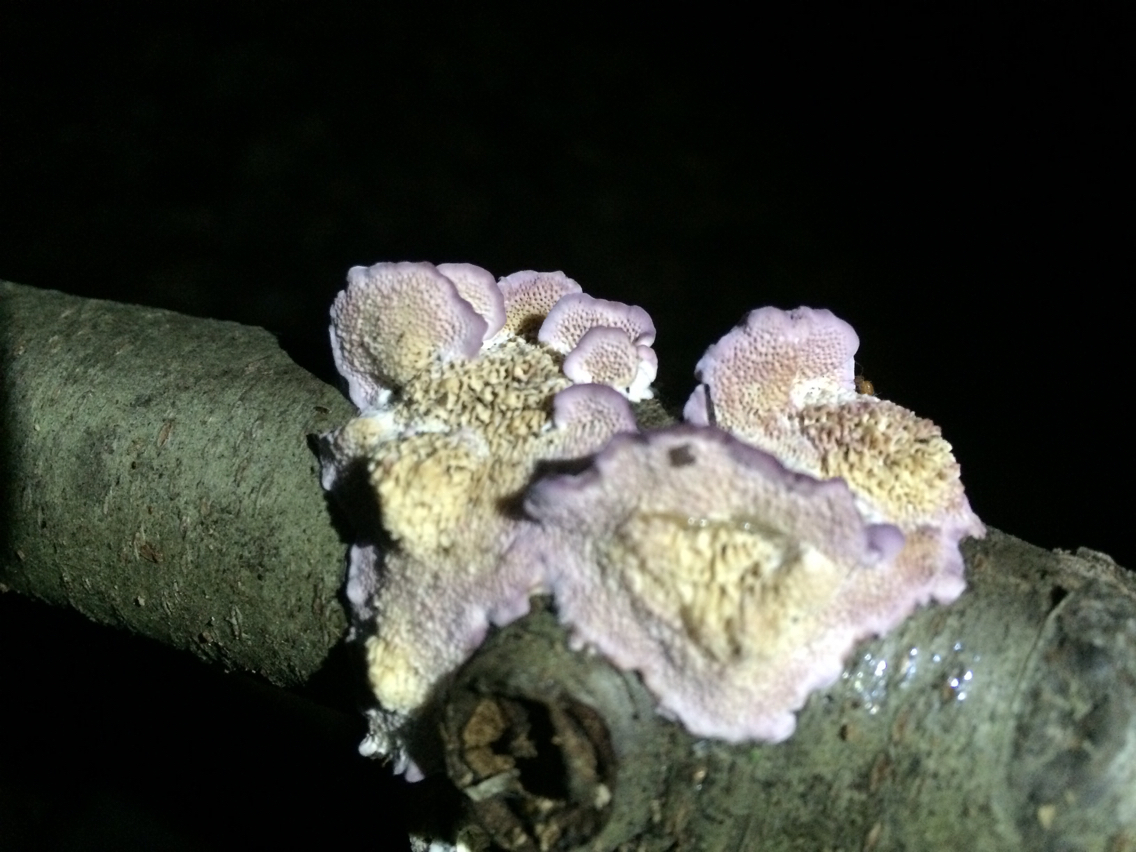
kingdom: Fungi
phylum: Basidiomycota
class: Agaricomycetes
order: Hymenochaetales
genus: Trichaptum
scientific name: Trichaptum biforme
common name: Violet-toothed polypore
